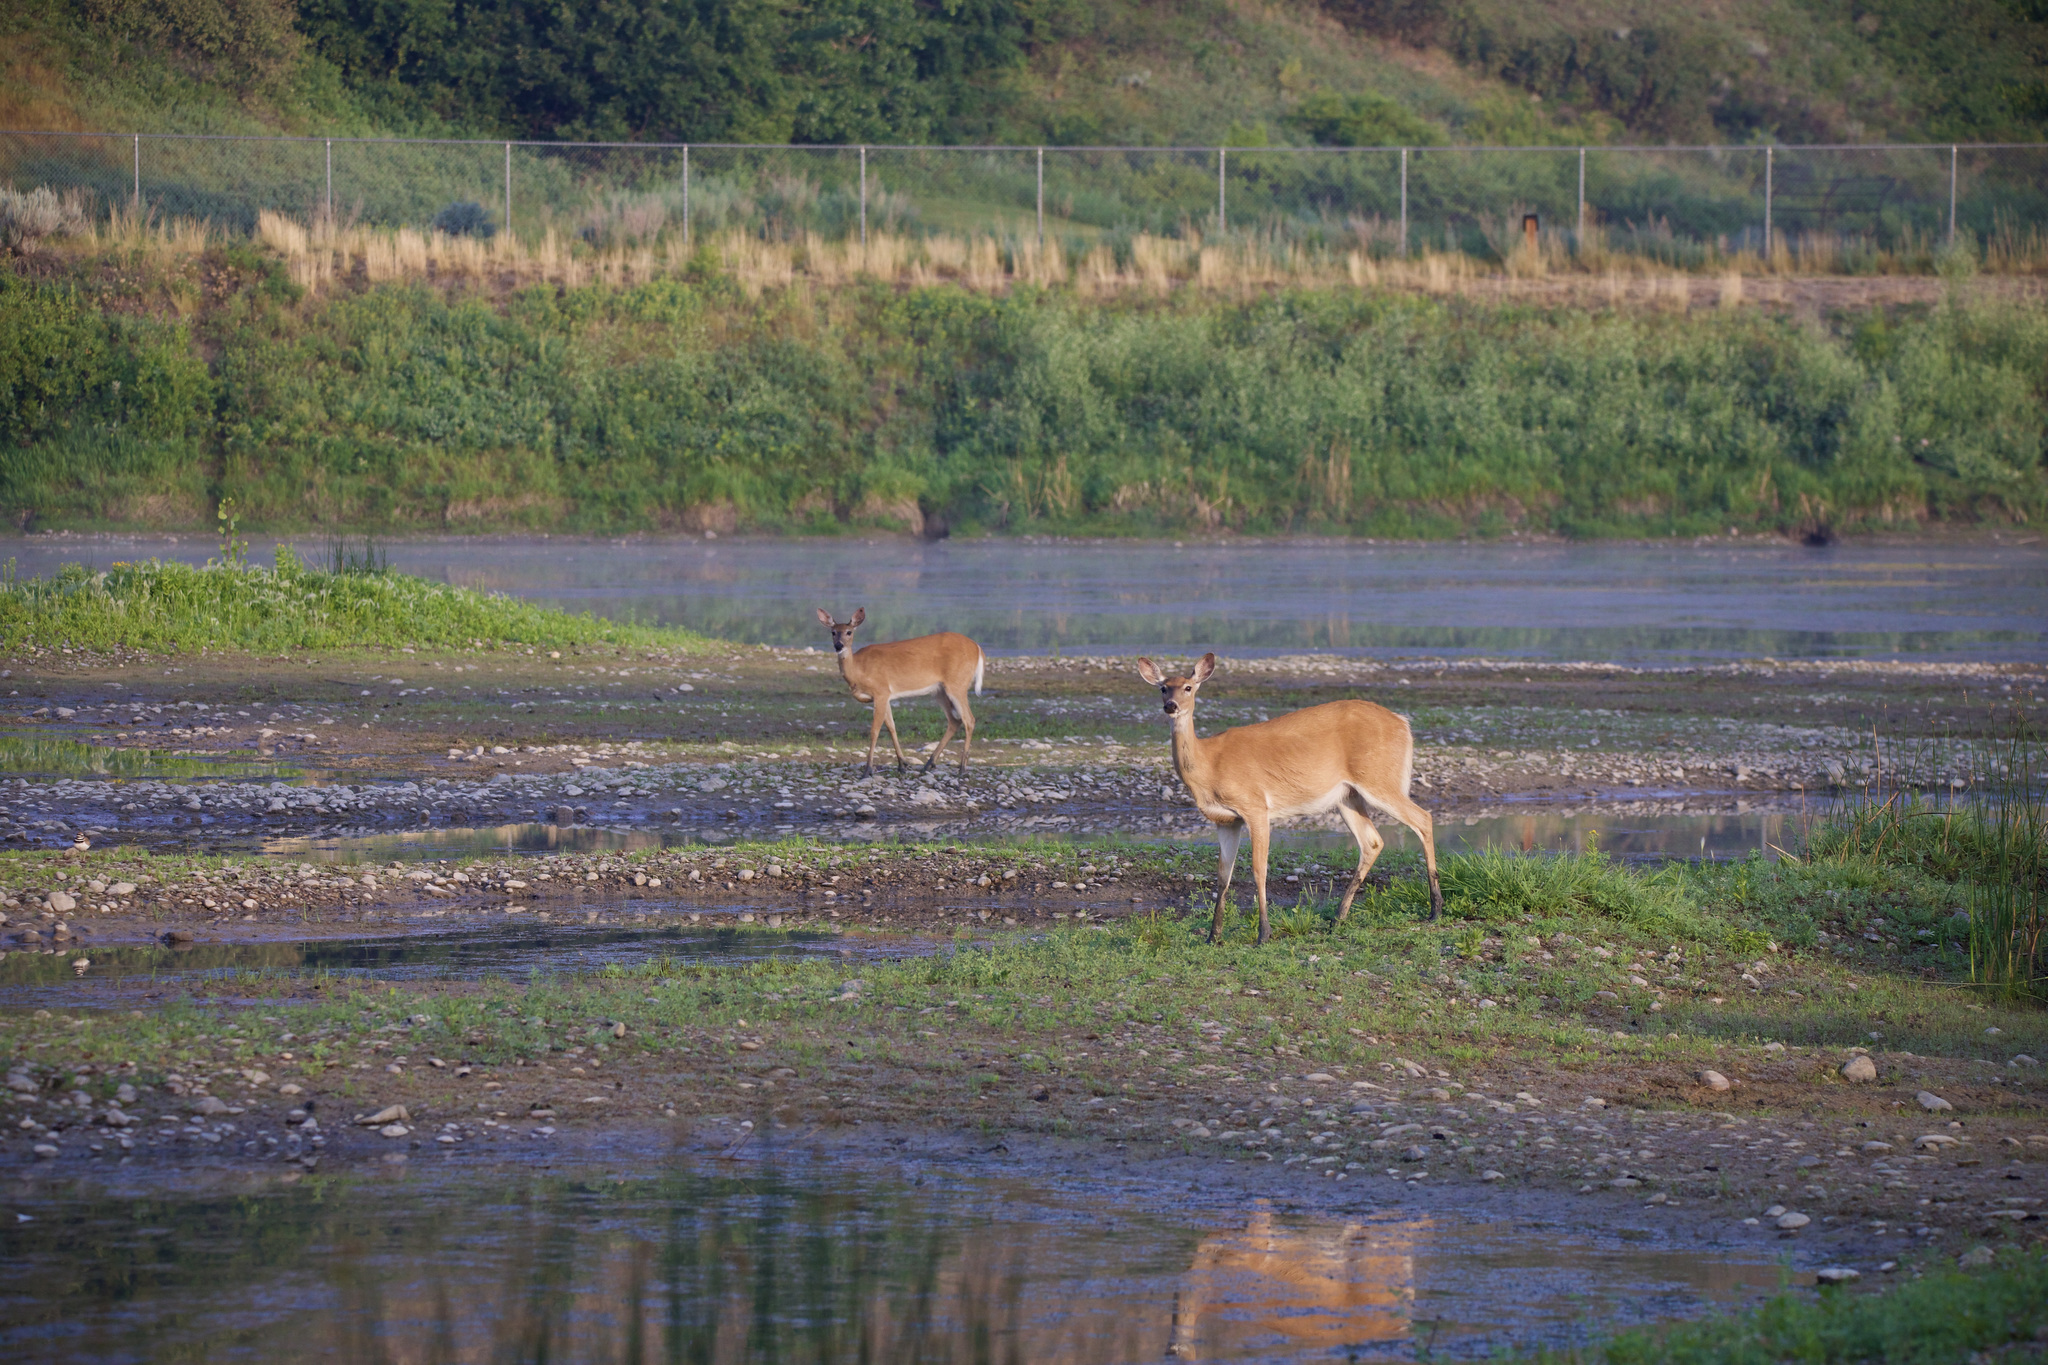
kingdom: Animalia
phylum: Chordata
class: Mammalia
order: Artiodactyla
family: Cervidae
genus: Odocoileus
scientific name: Odocoileus virginianus
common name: White-tailed deer
